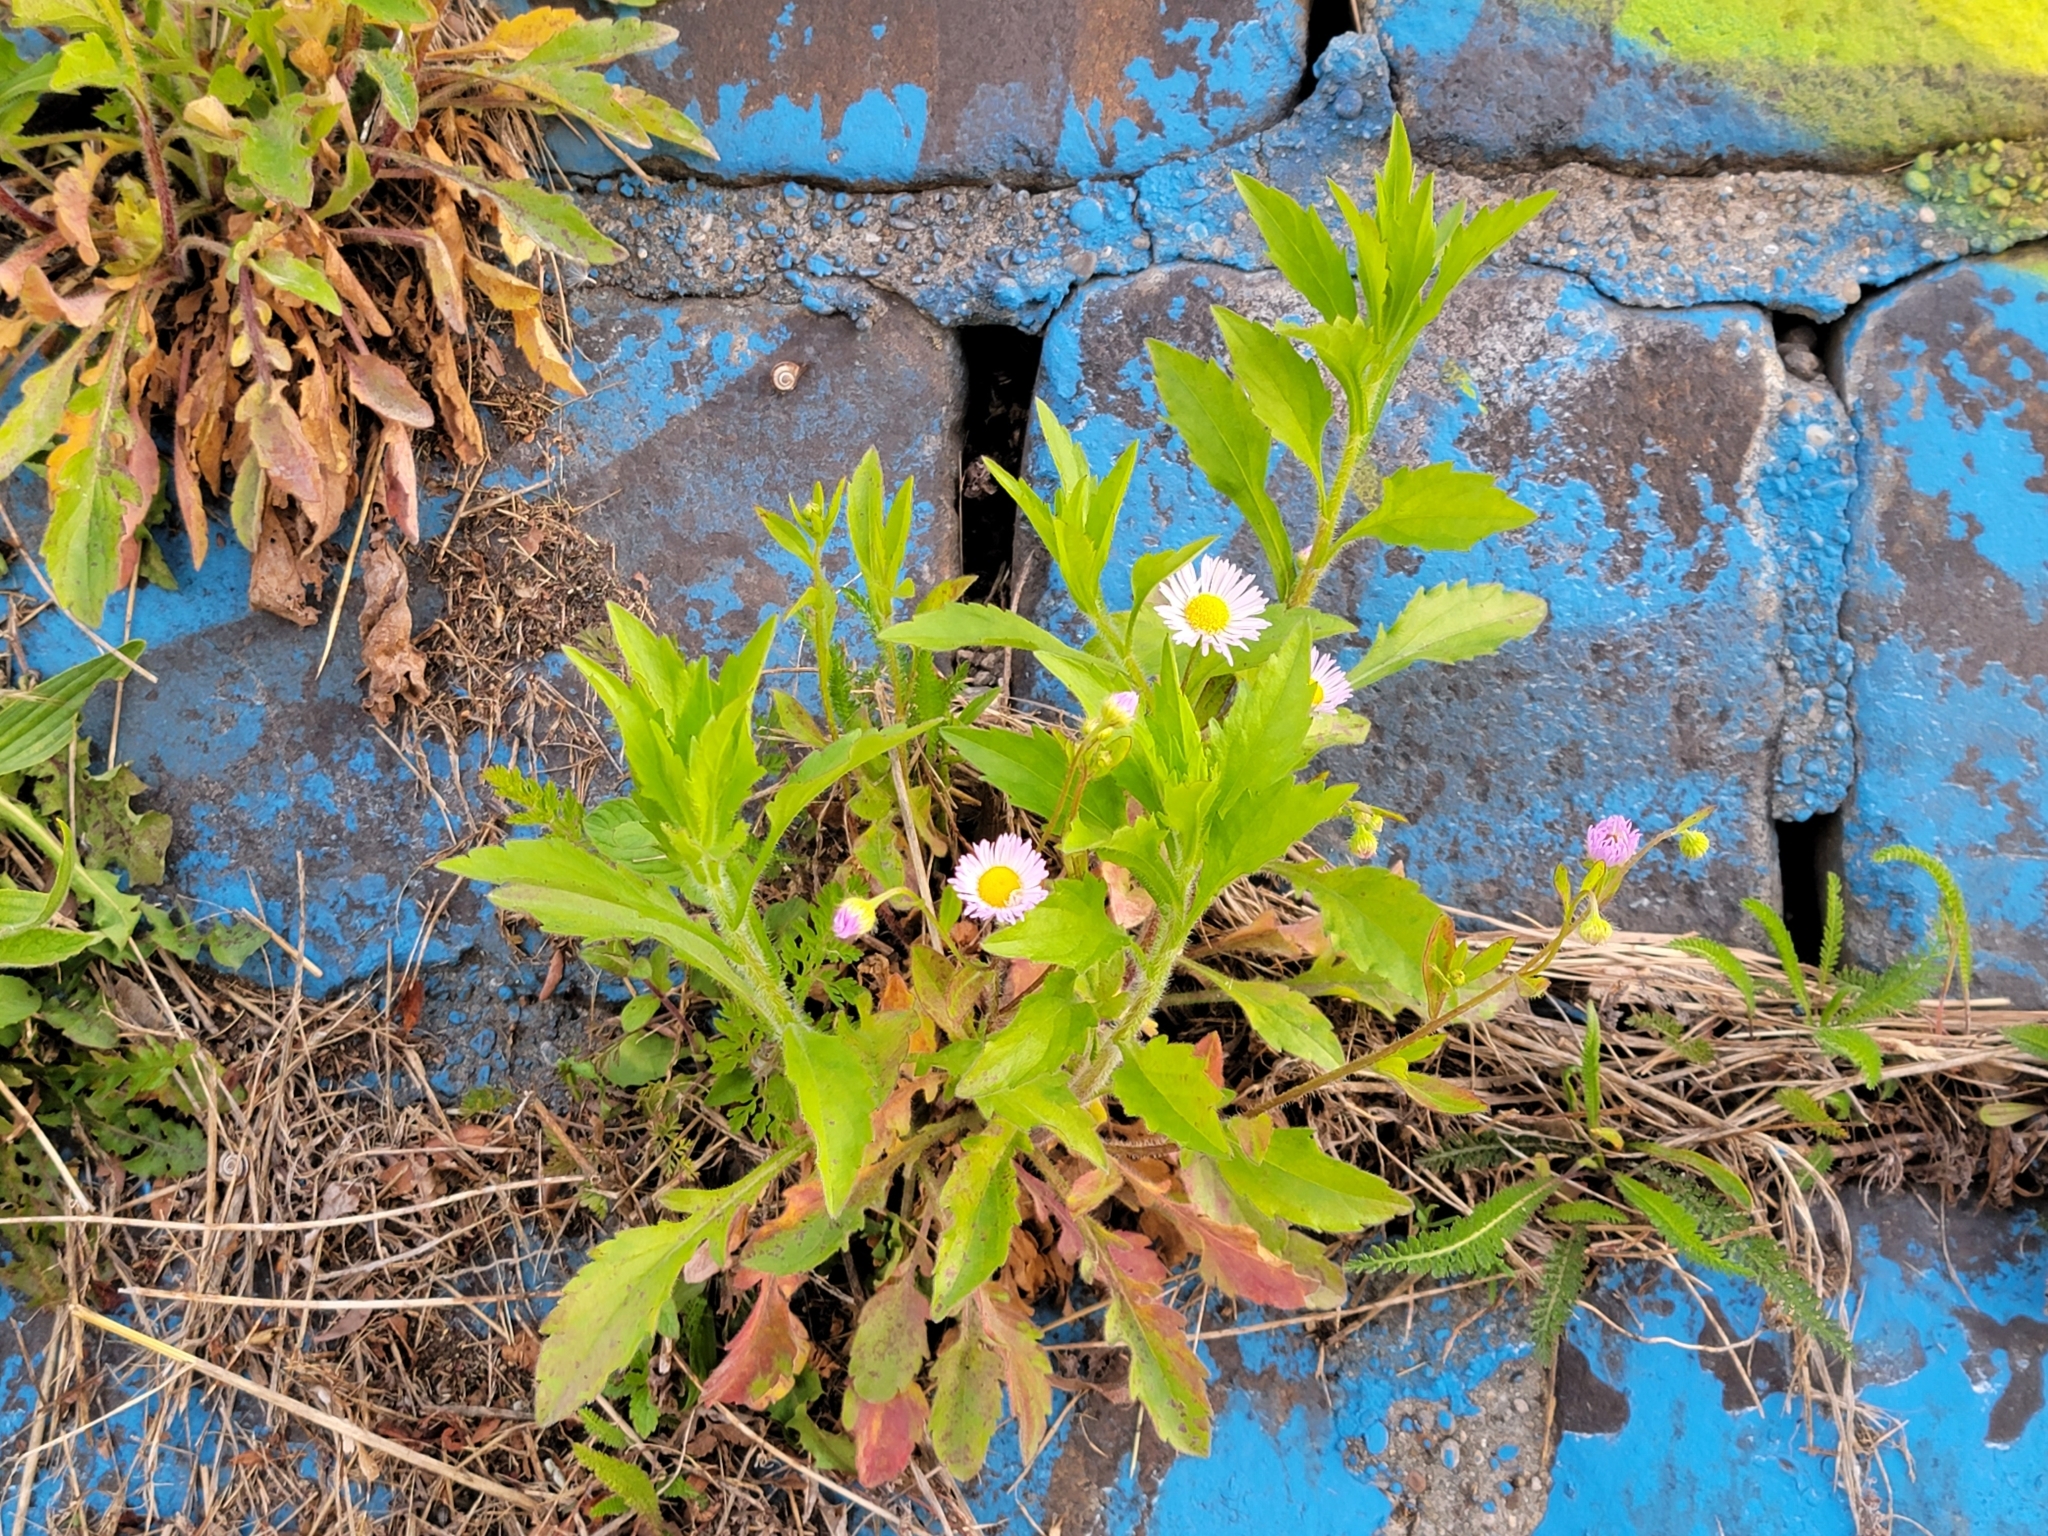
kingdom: Plantae
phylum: Tracheophyta
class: Magnoliopsida
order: Asterales
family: Asteraceae
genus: Erigeron
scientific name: Erigeron annuus
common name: Tall fleabane
